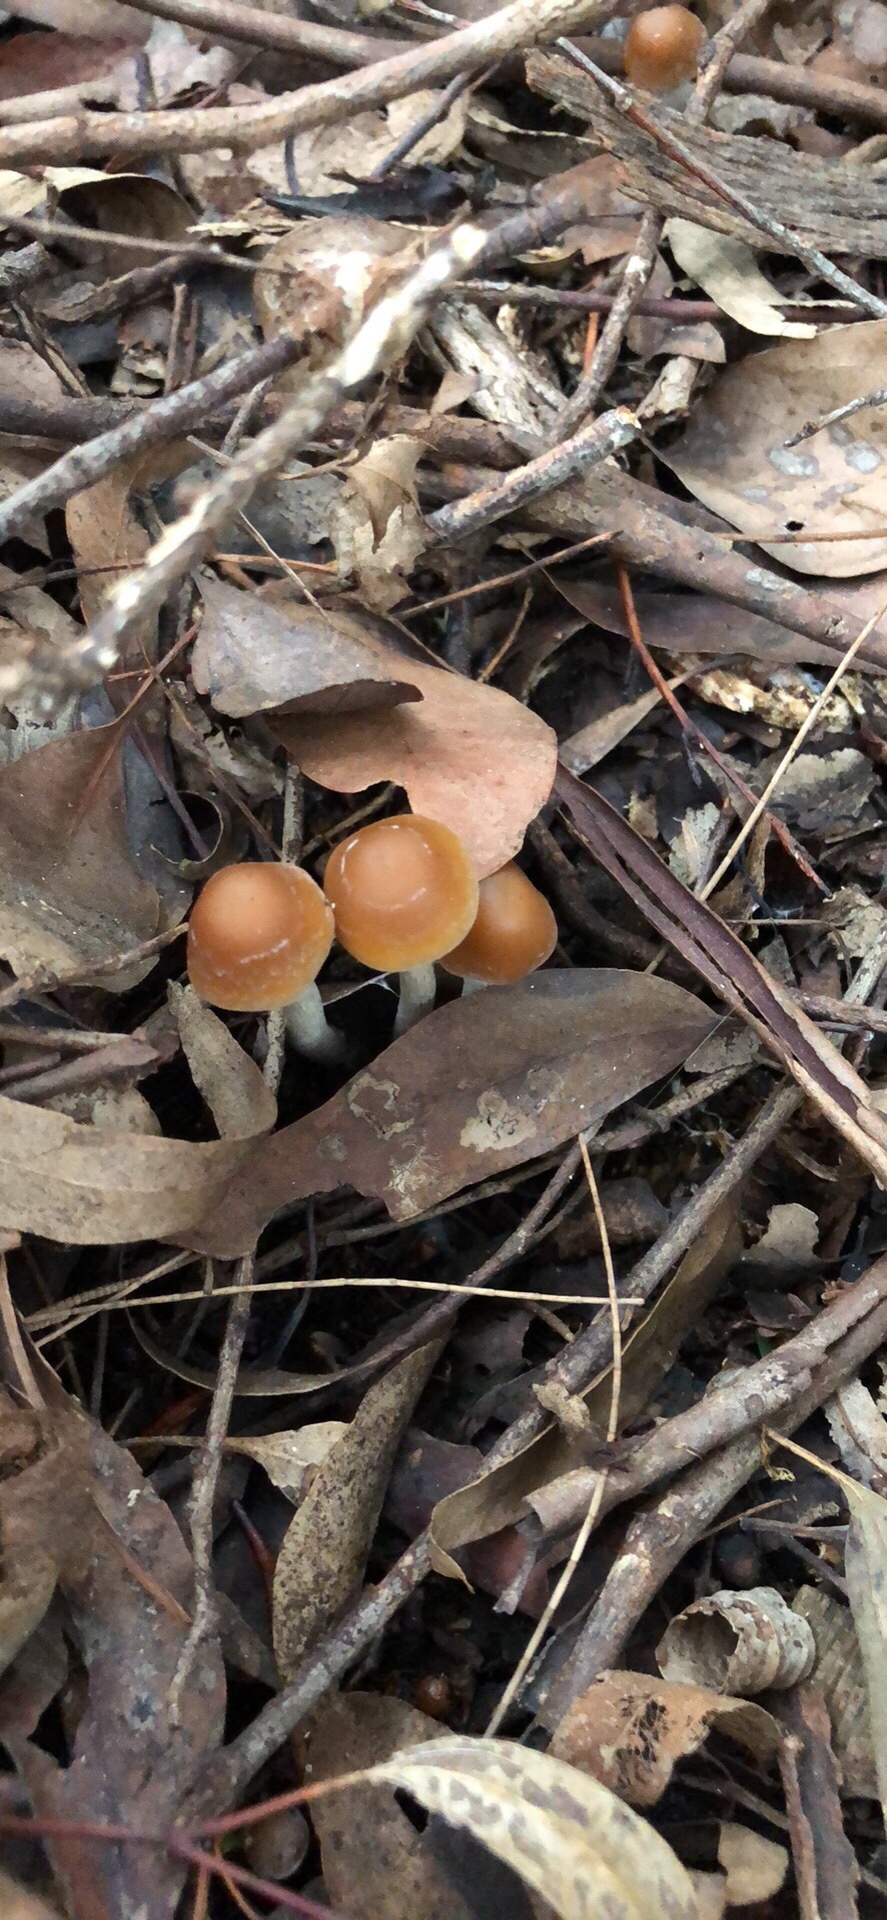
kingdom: Fungi
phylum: Basidiomycota
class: Agaricomycetes
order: Agaricales
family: Hymenogastraceae
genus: Psilocybe
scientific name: Psilocybe subaeruginosa
